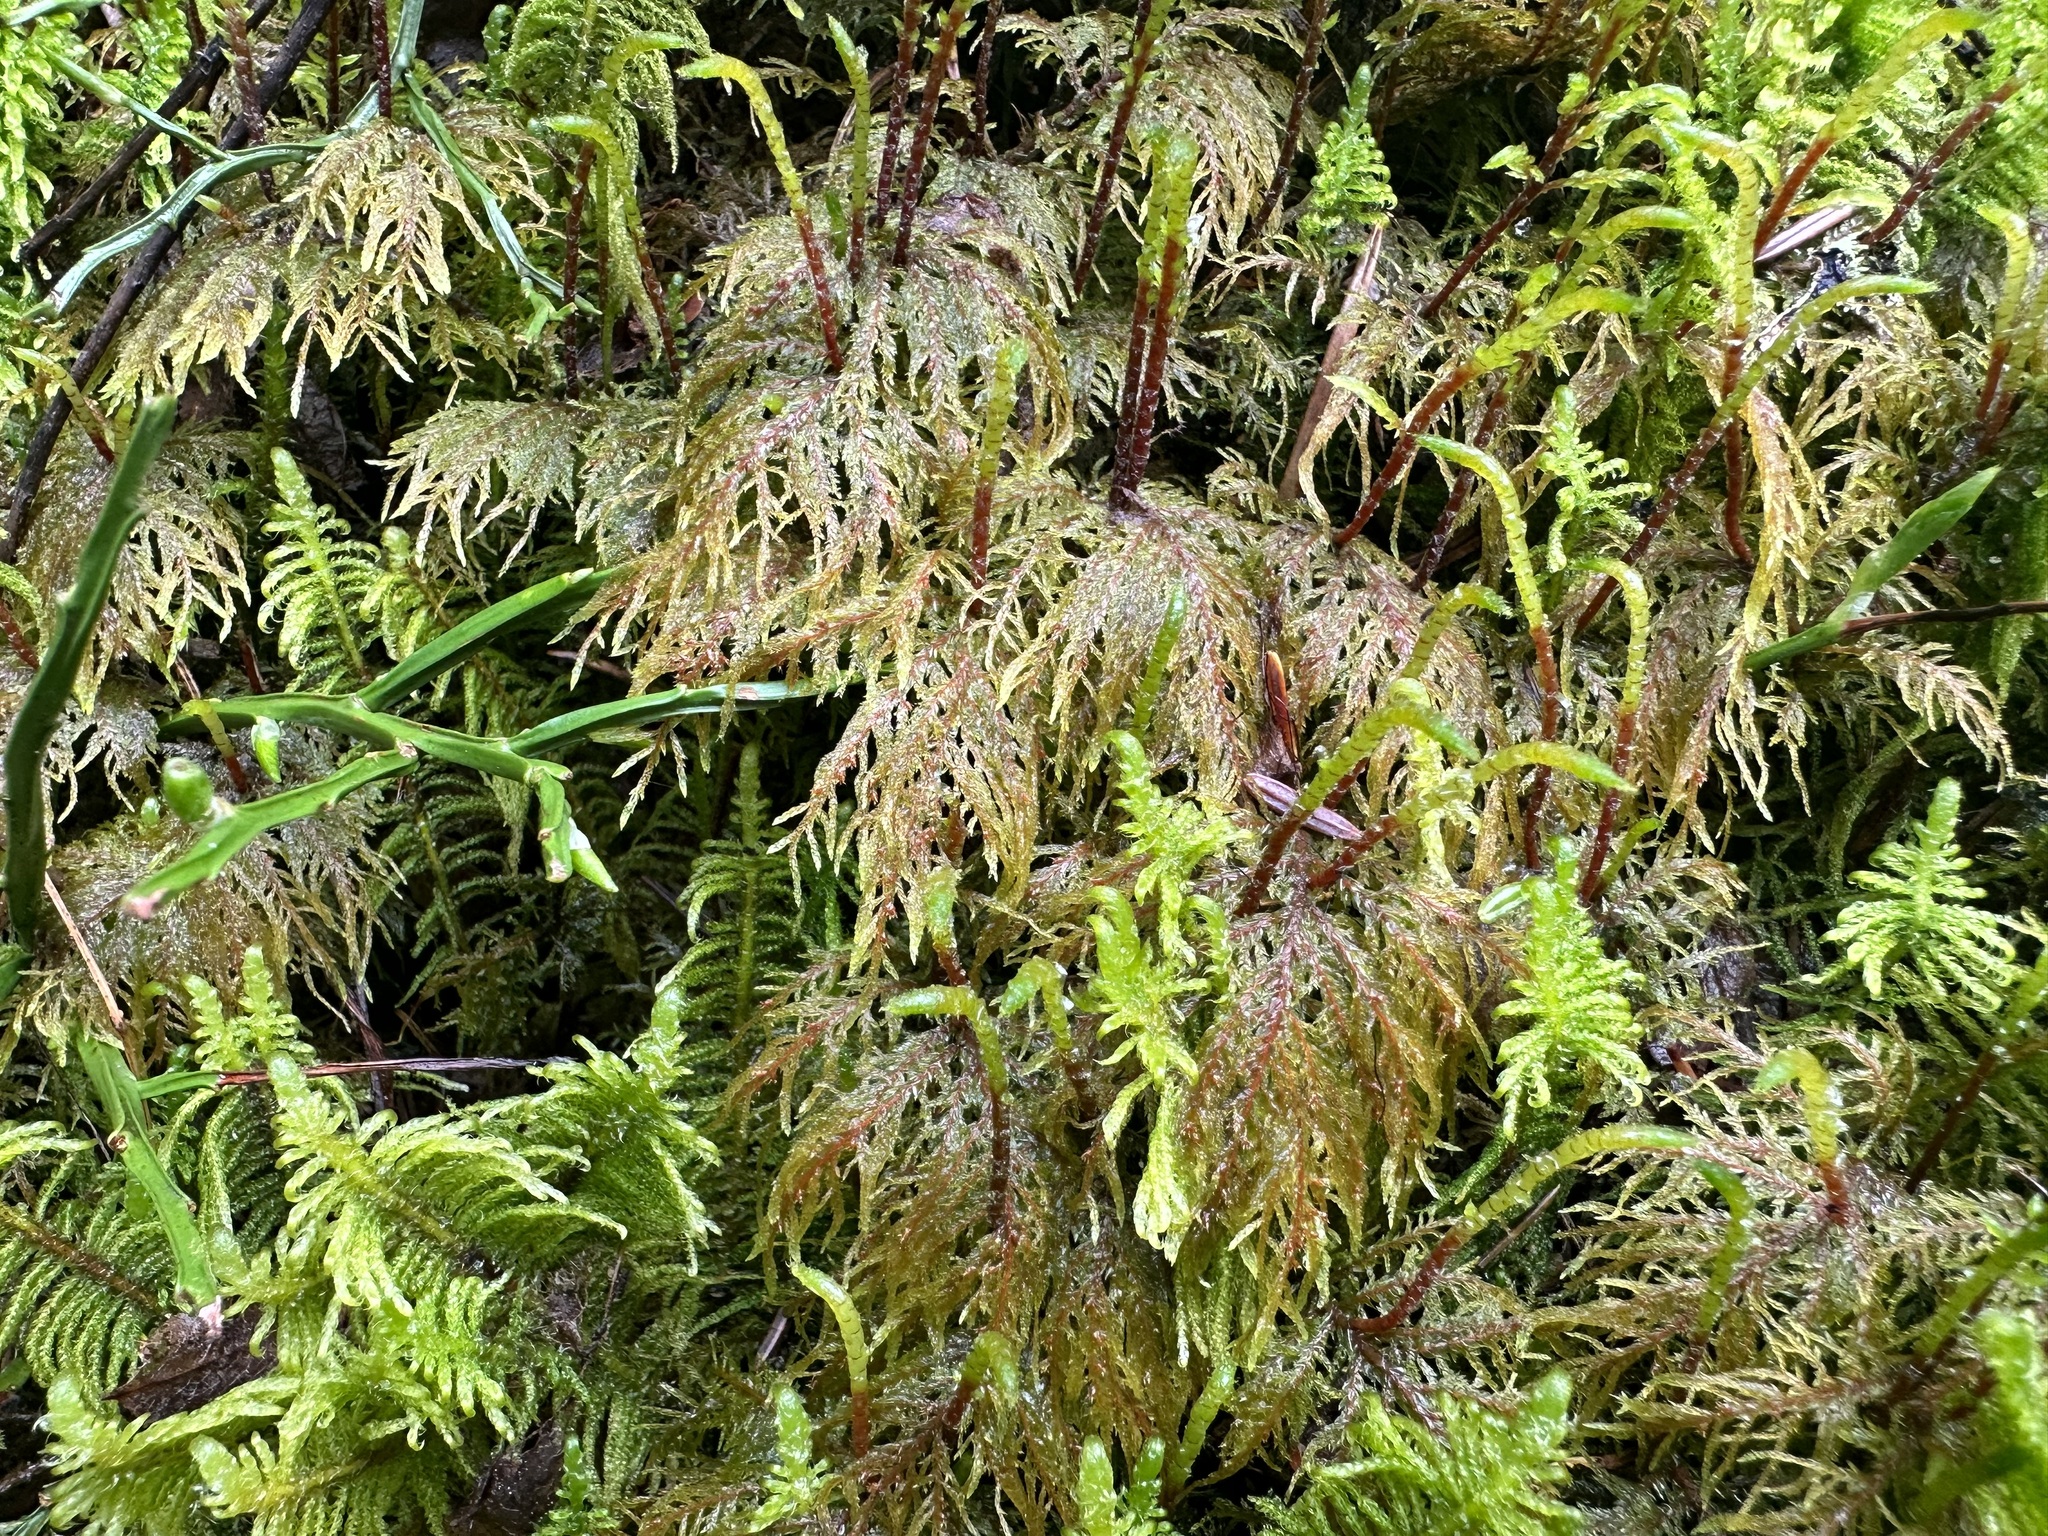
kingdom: Plantae
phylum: Bryophyta
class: Bryopsida
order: Hypnales
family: Hylocomiaceae
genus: Hylocomium
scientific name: Hylocomium splendens
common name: Stairstep moss
